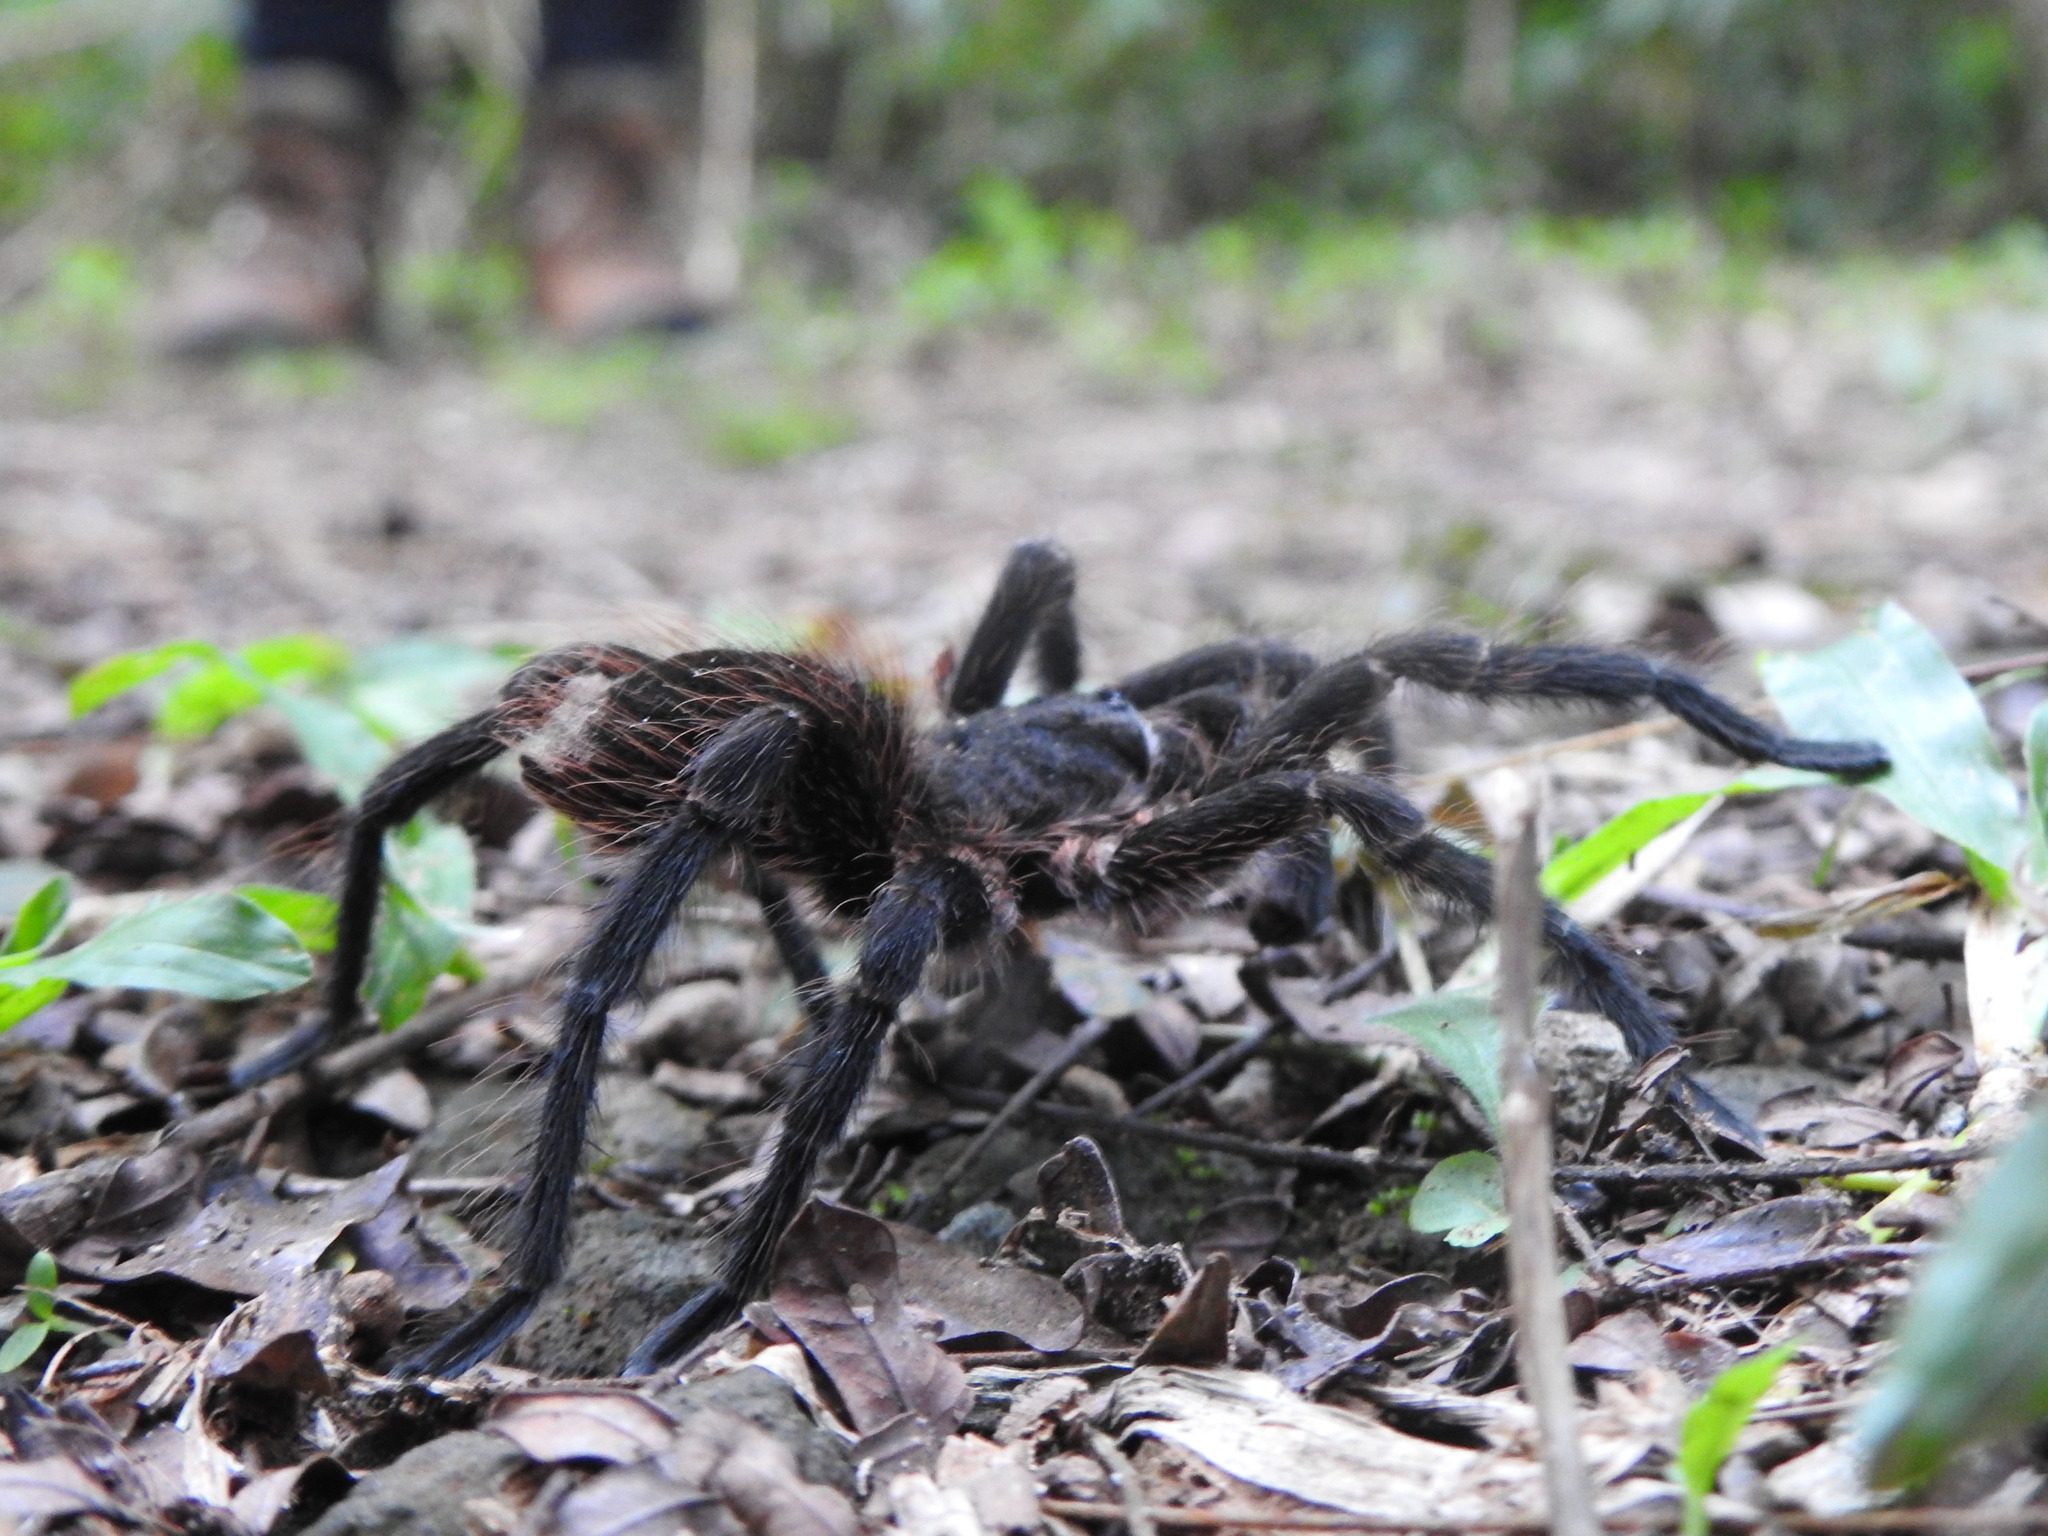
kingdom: Animalia
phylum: Arthropoda
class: Arachnida
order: Araneae
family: Theraphosidae
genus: Pterinopelma
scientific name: Pterinopelma longisternale
